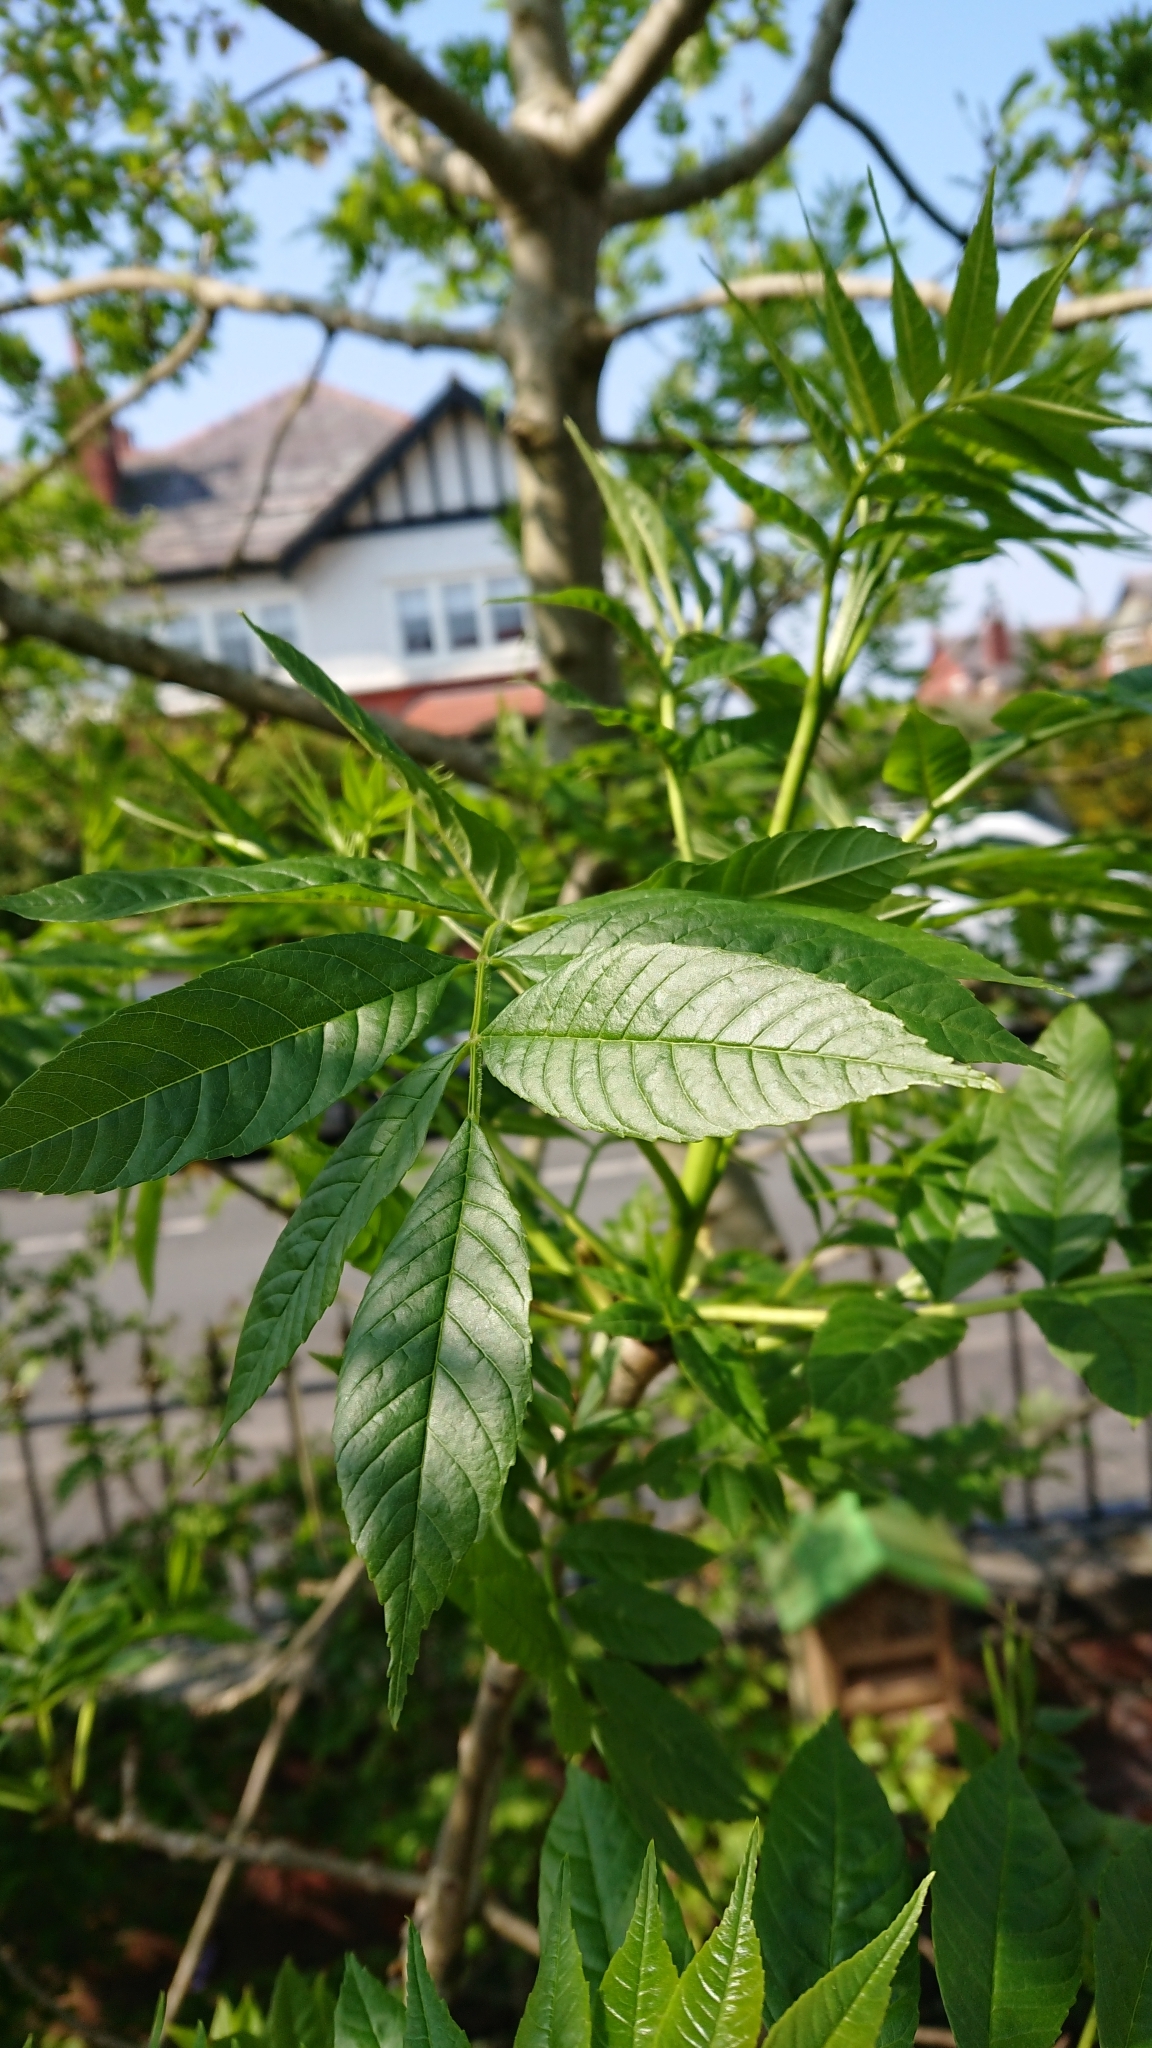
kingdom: Plantae
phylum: Tracheophyta
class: Magnoliopsida
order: Lamiales
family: Oleaceae
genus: Fraxinus
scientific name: Fraxinus excelsior
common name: European ash
